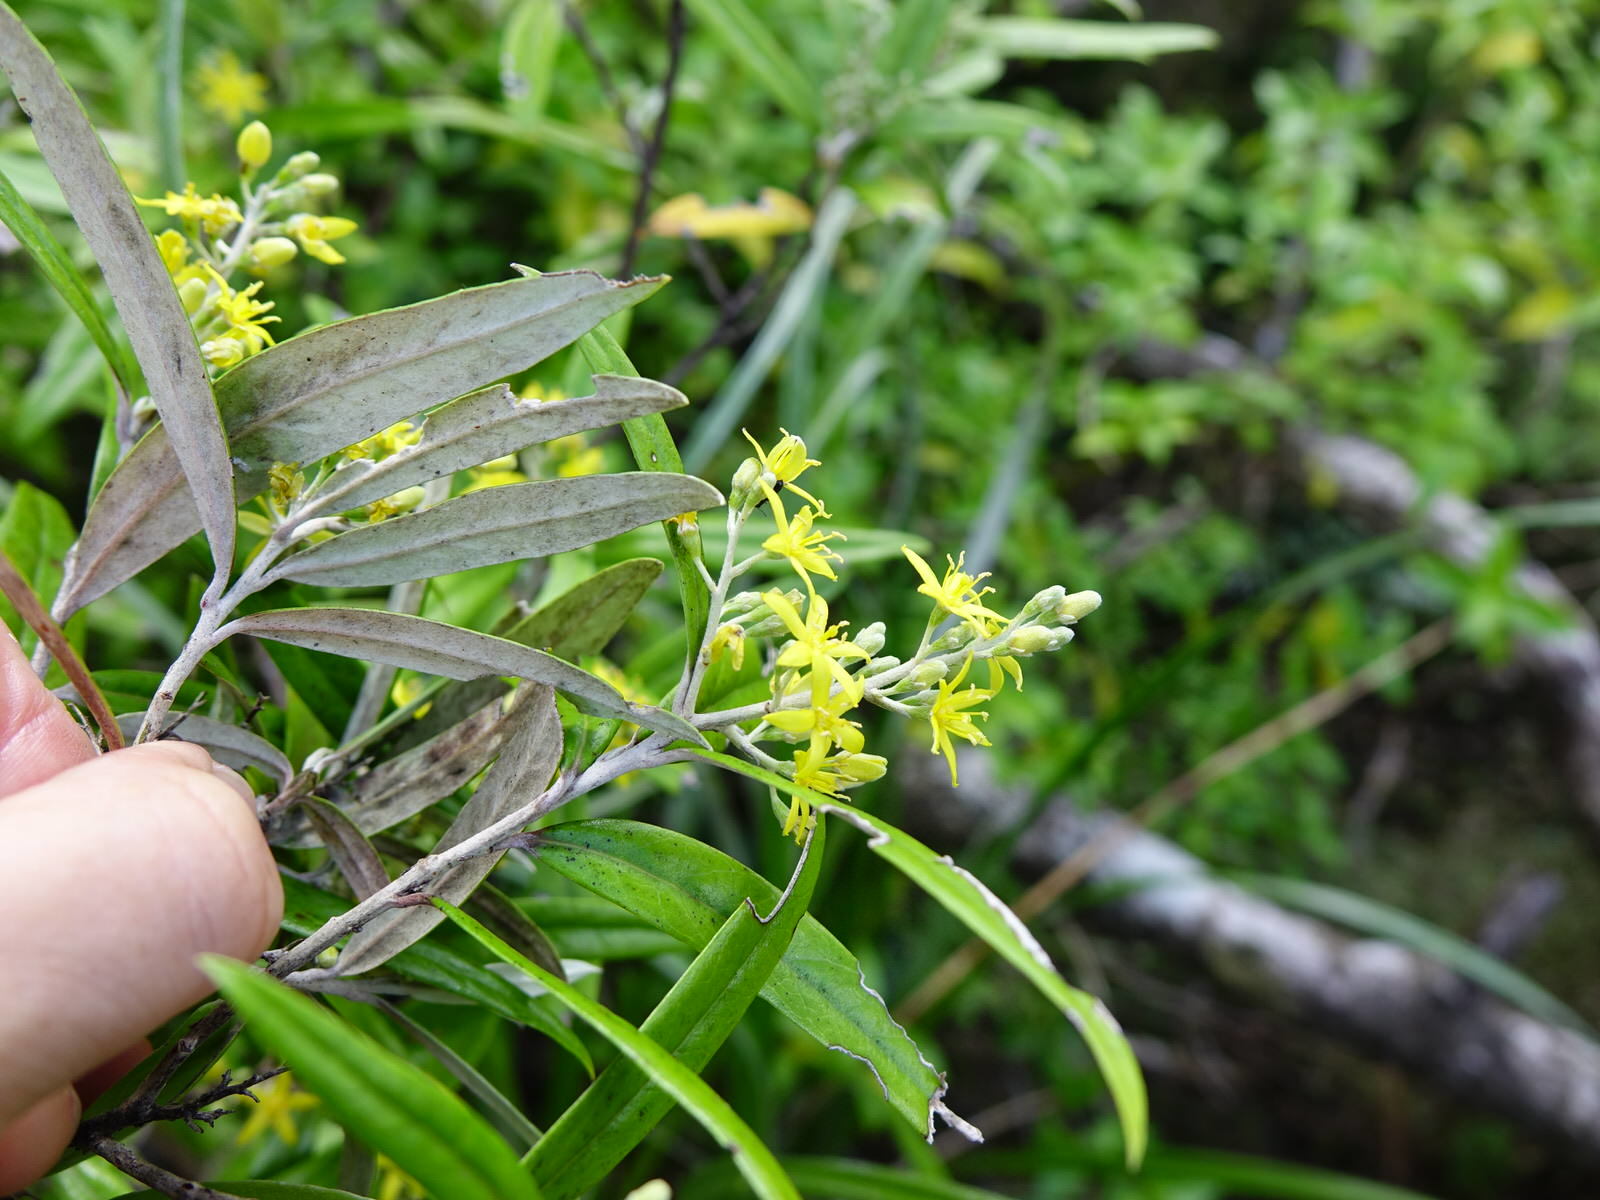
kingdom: Plantae
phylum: Tracheophyta
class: Magnoliopsida
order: Asterales
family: Argophyllaceae
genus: Corokia
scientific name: Corokia buddleioides
